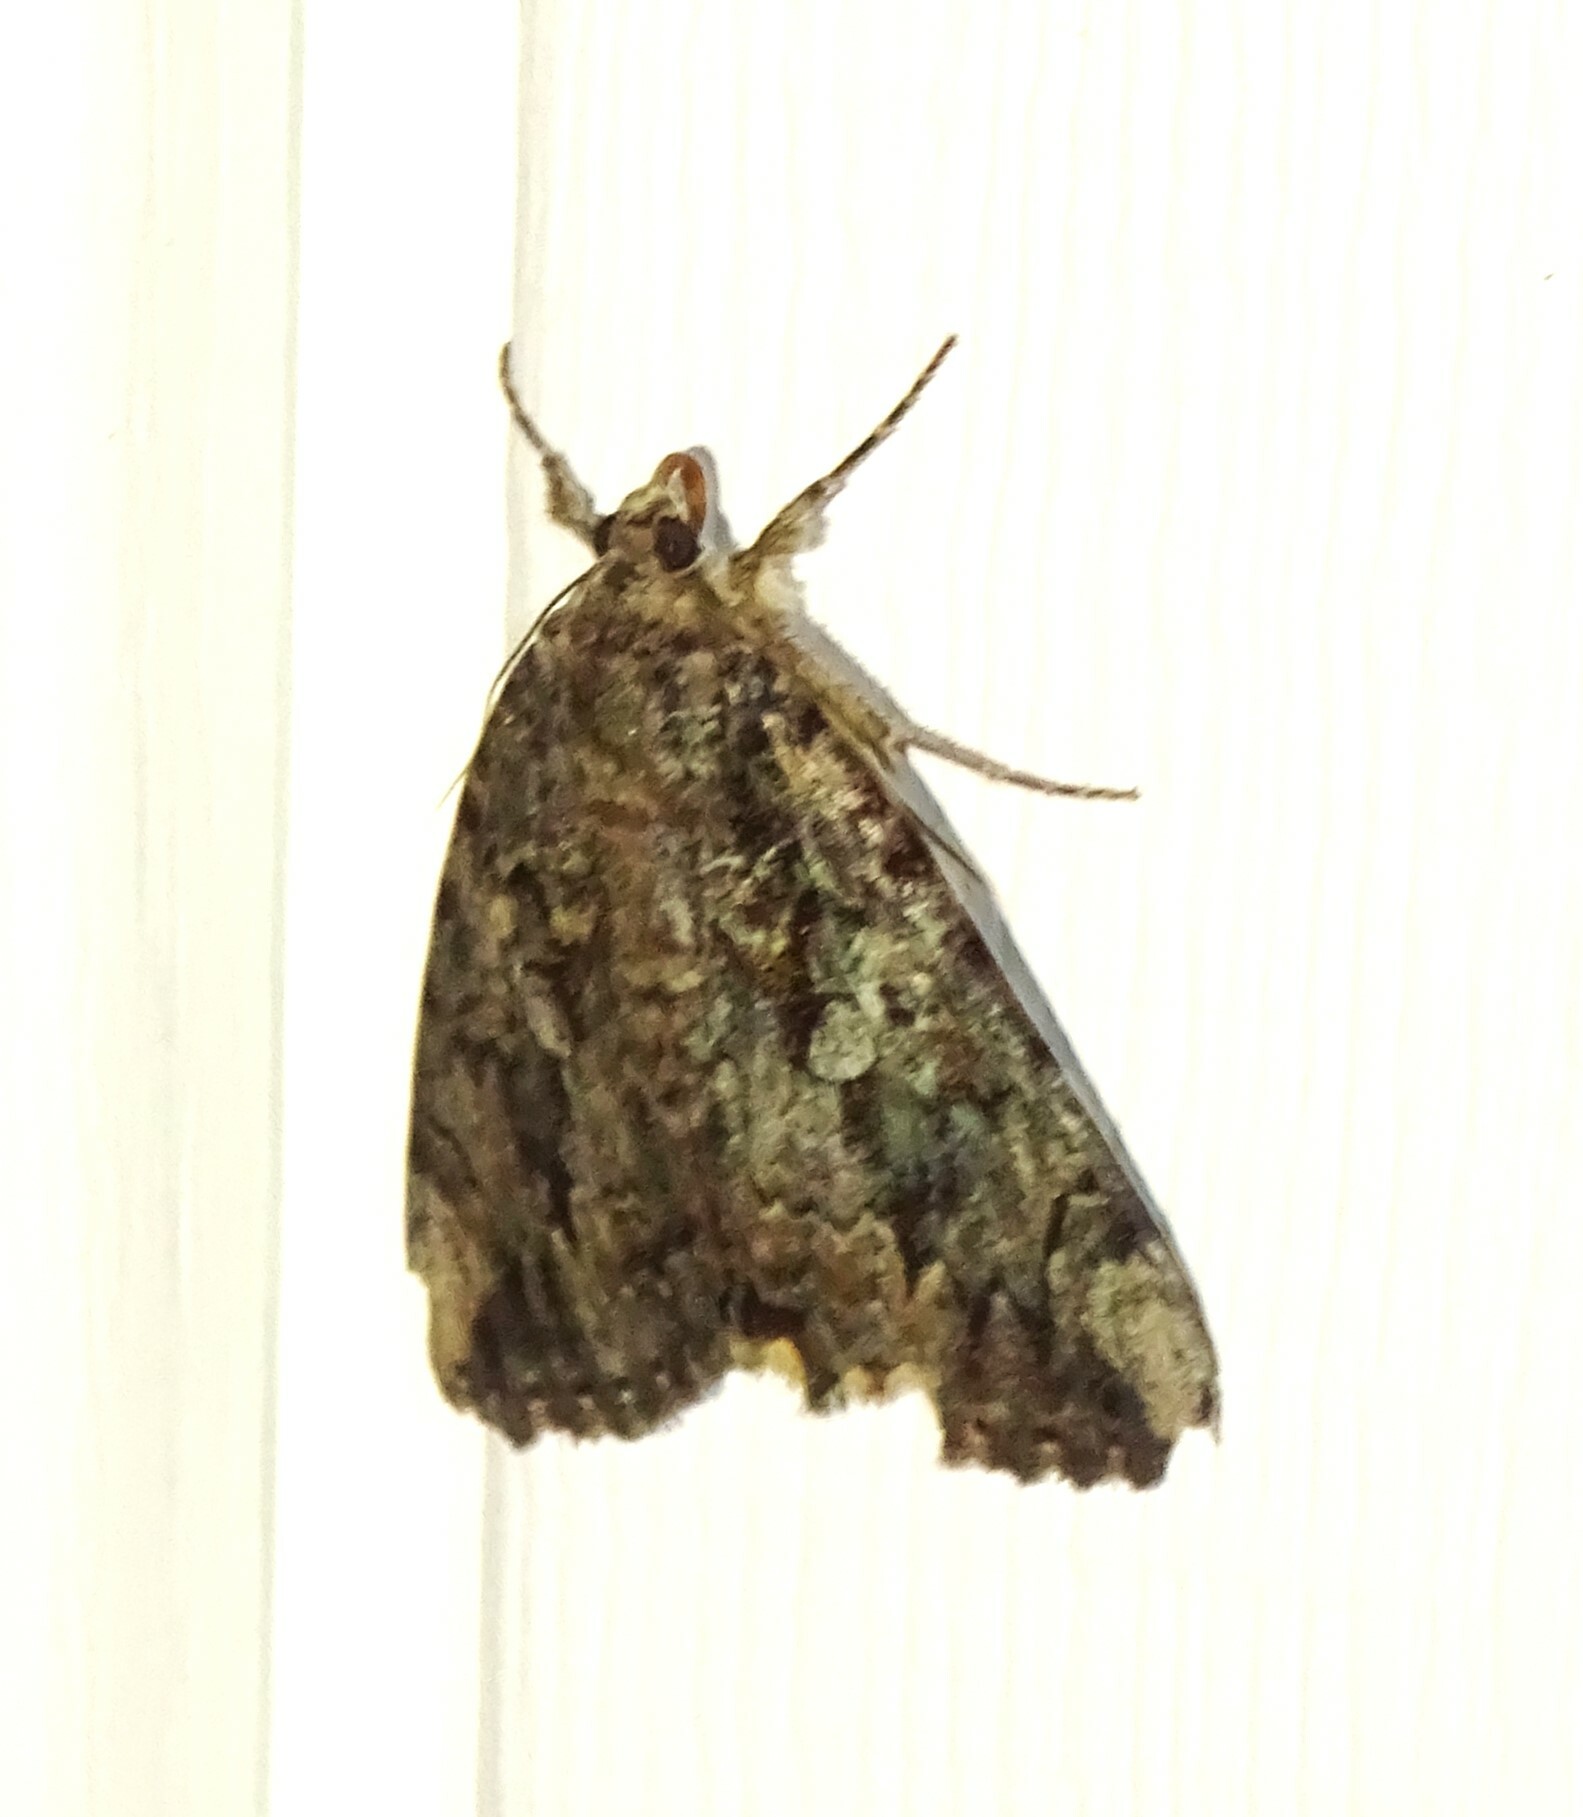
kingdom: Animalia
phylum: Arthropoda
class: Insecta
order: Lepidoptera
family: Erebidae
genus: Catocala
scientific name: Catocala innubens
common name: Betrothed underwing
